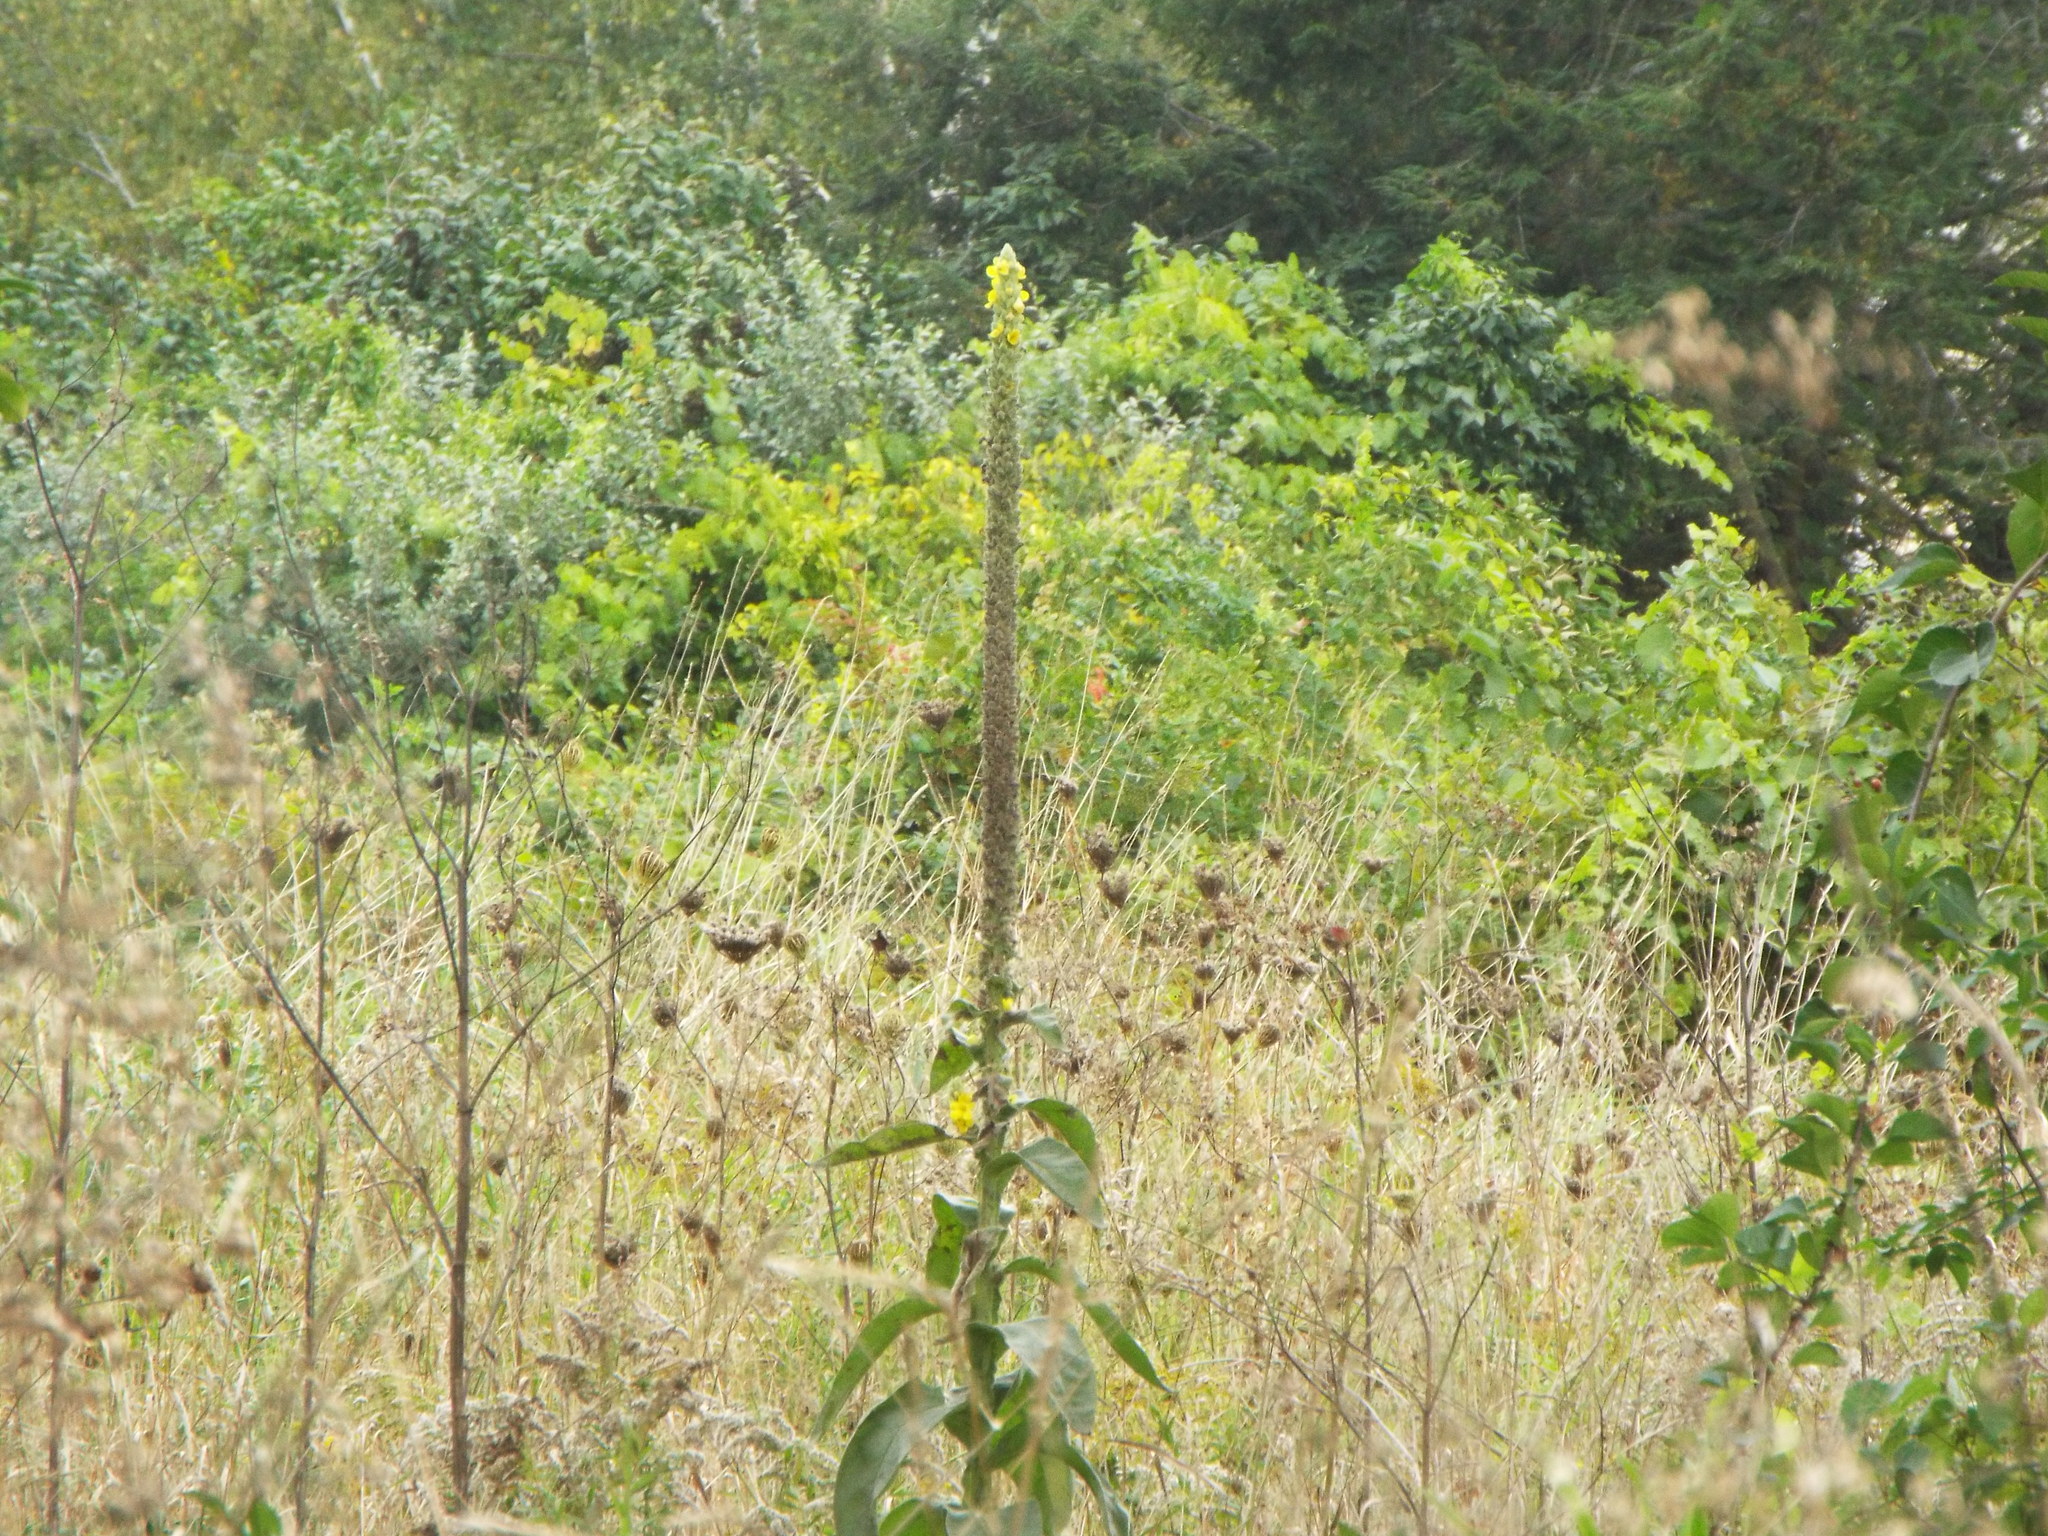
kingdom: Plantae
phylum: Tracheophyta
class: Magnoliopsida
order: Lamiales
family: Scrophulariaceae
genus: Verbascum
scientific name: Verbascum thapsus
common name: Common mullein
